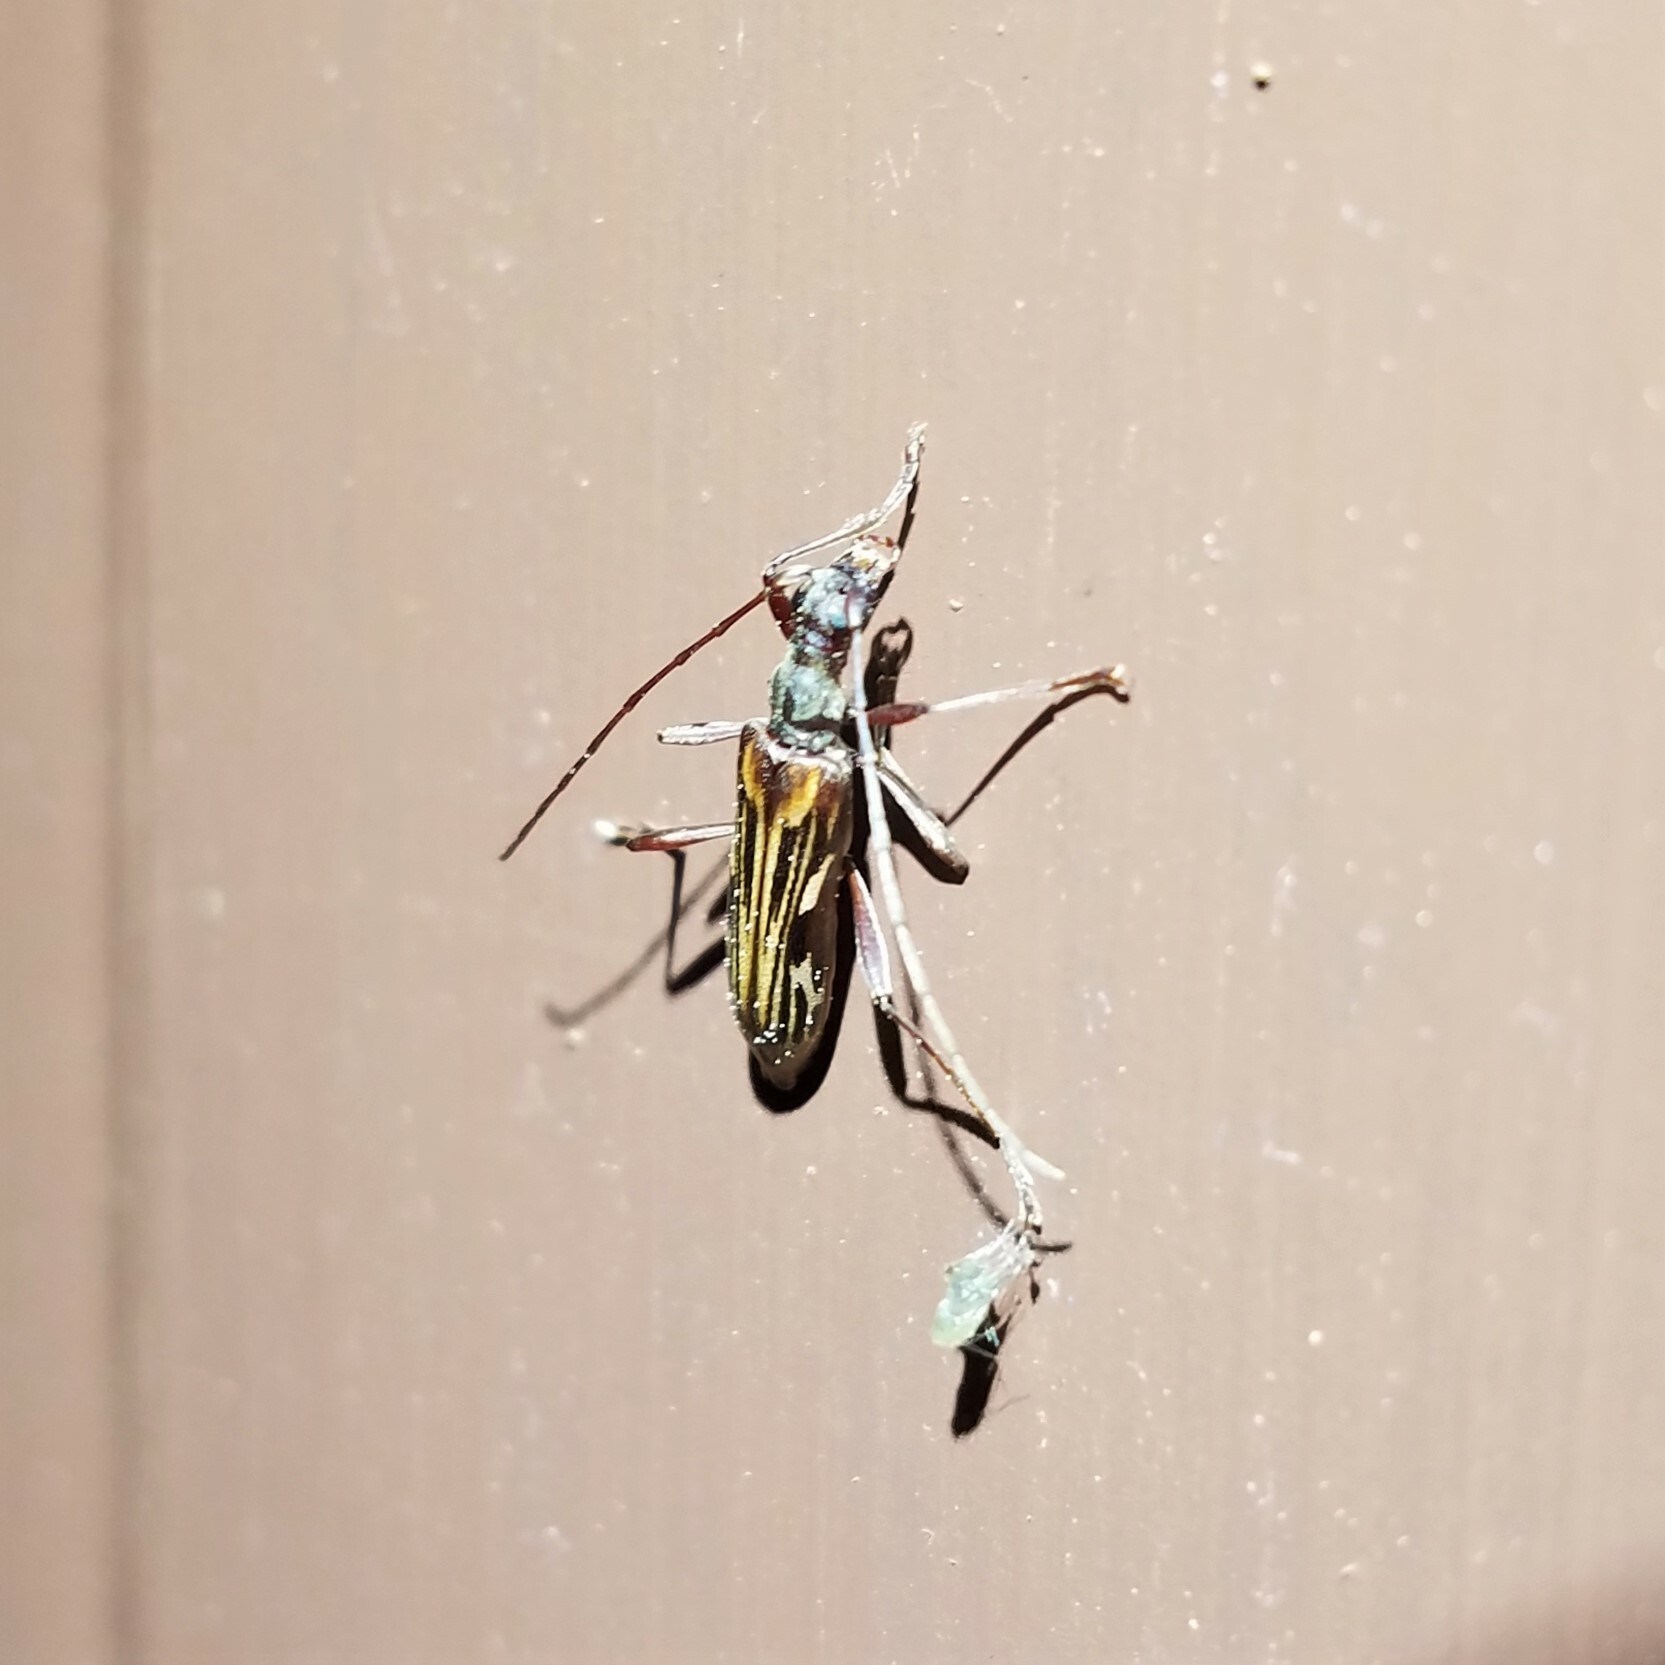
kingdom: Animalia
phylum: Arthropoda
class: Insecta
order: Coleoptera
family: Cerambycidae
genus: Leptorhabdium
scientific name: Leptorhabdium pictum
